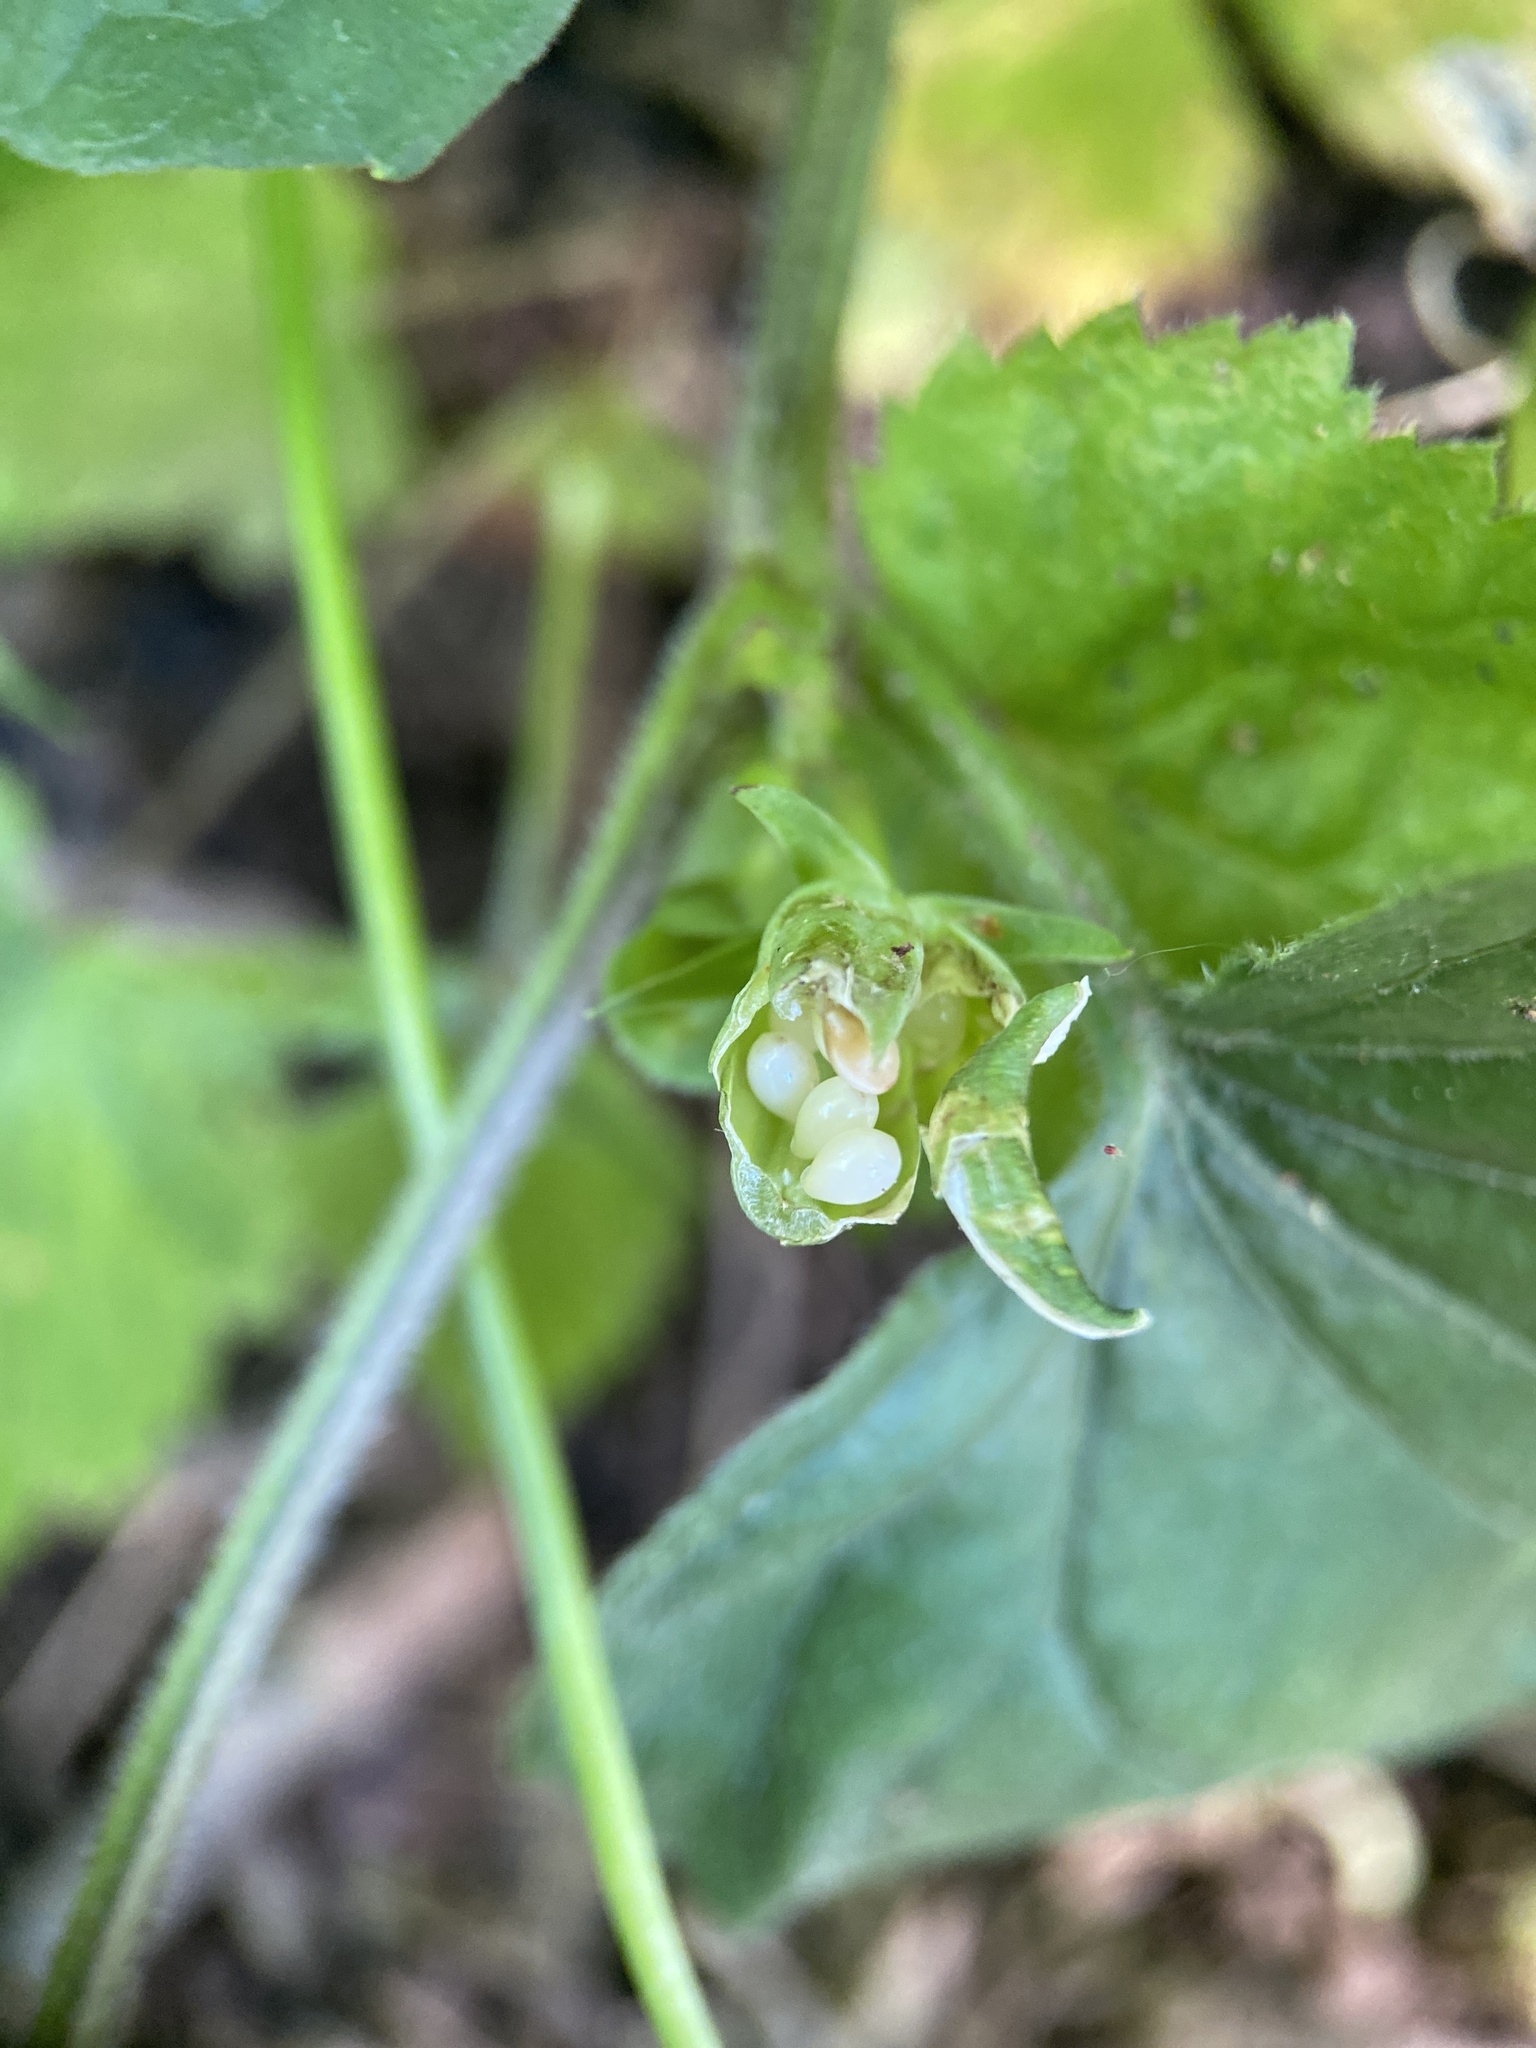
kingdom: Plantae
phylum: Tracheophyta
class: Magnoliopsida
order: Malpighiales
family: Violaceae
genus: Viola
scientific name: Viola eriocarpa
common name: Smooth yellow violet
